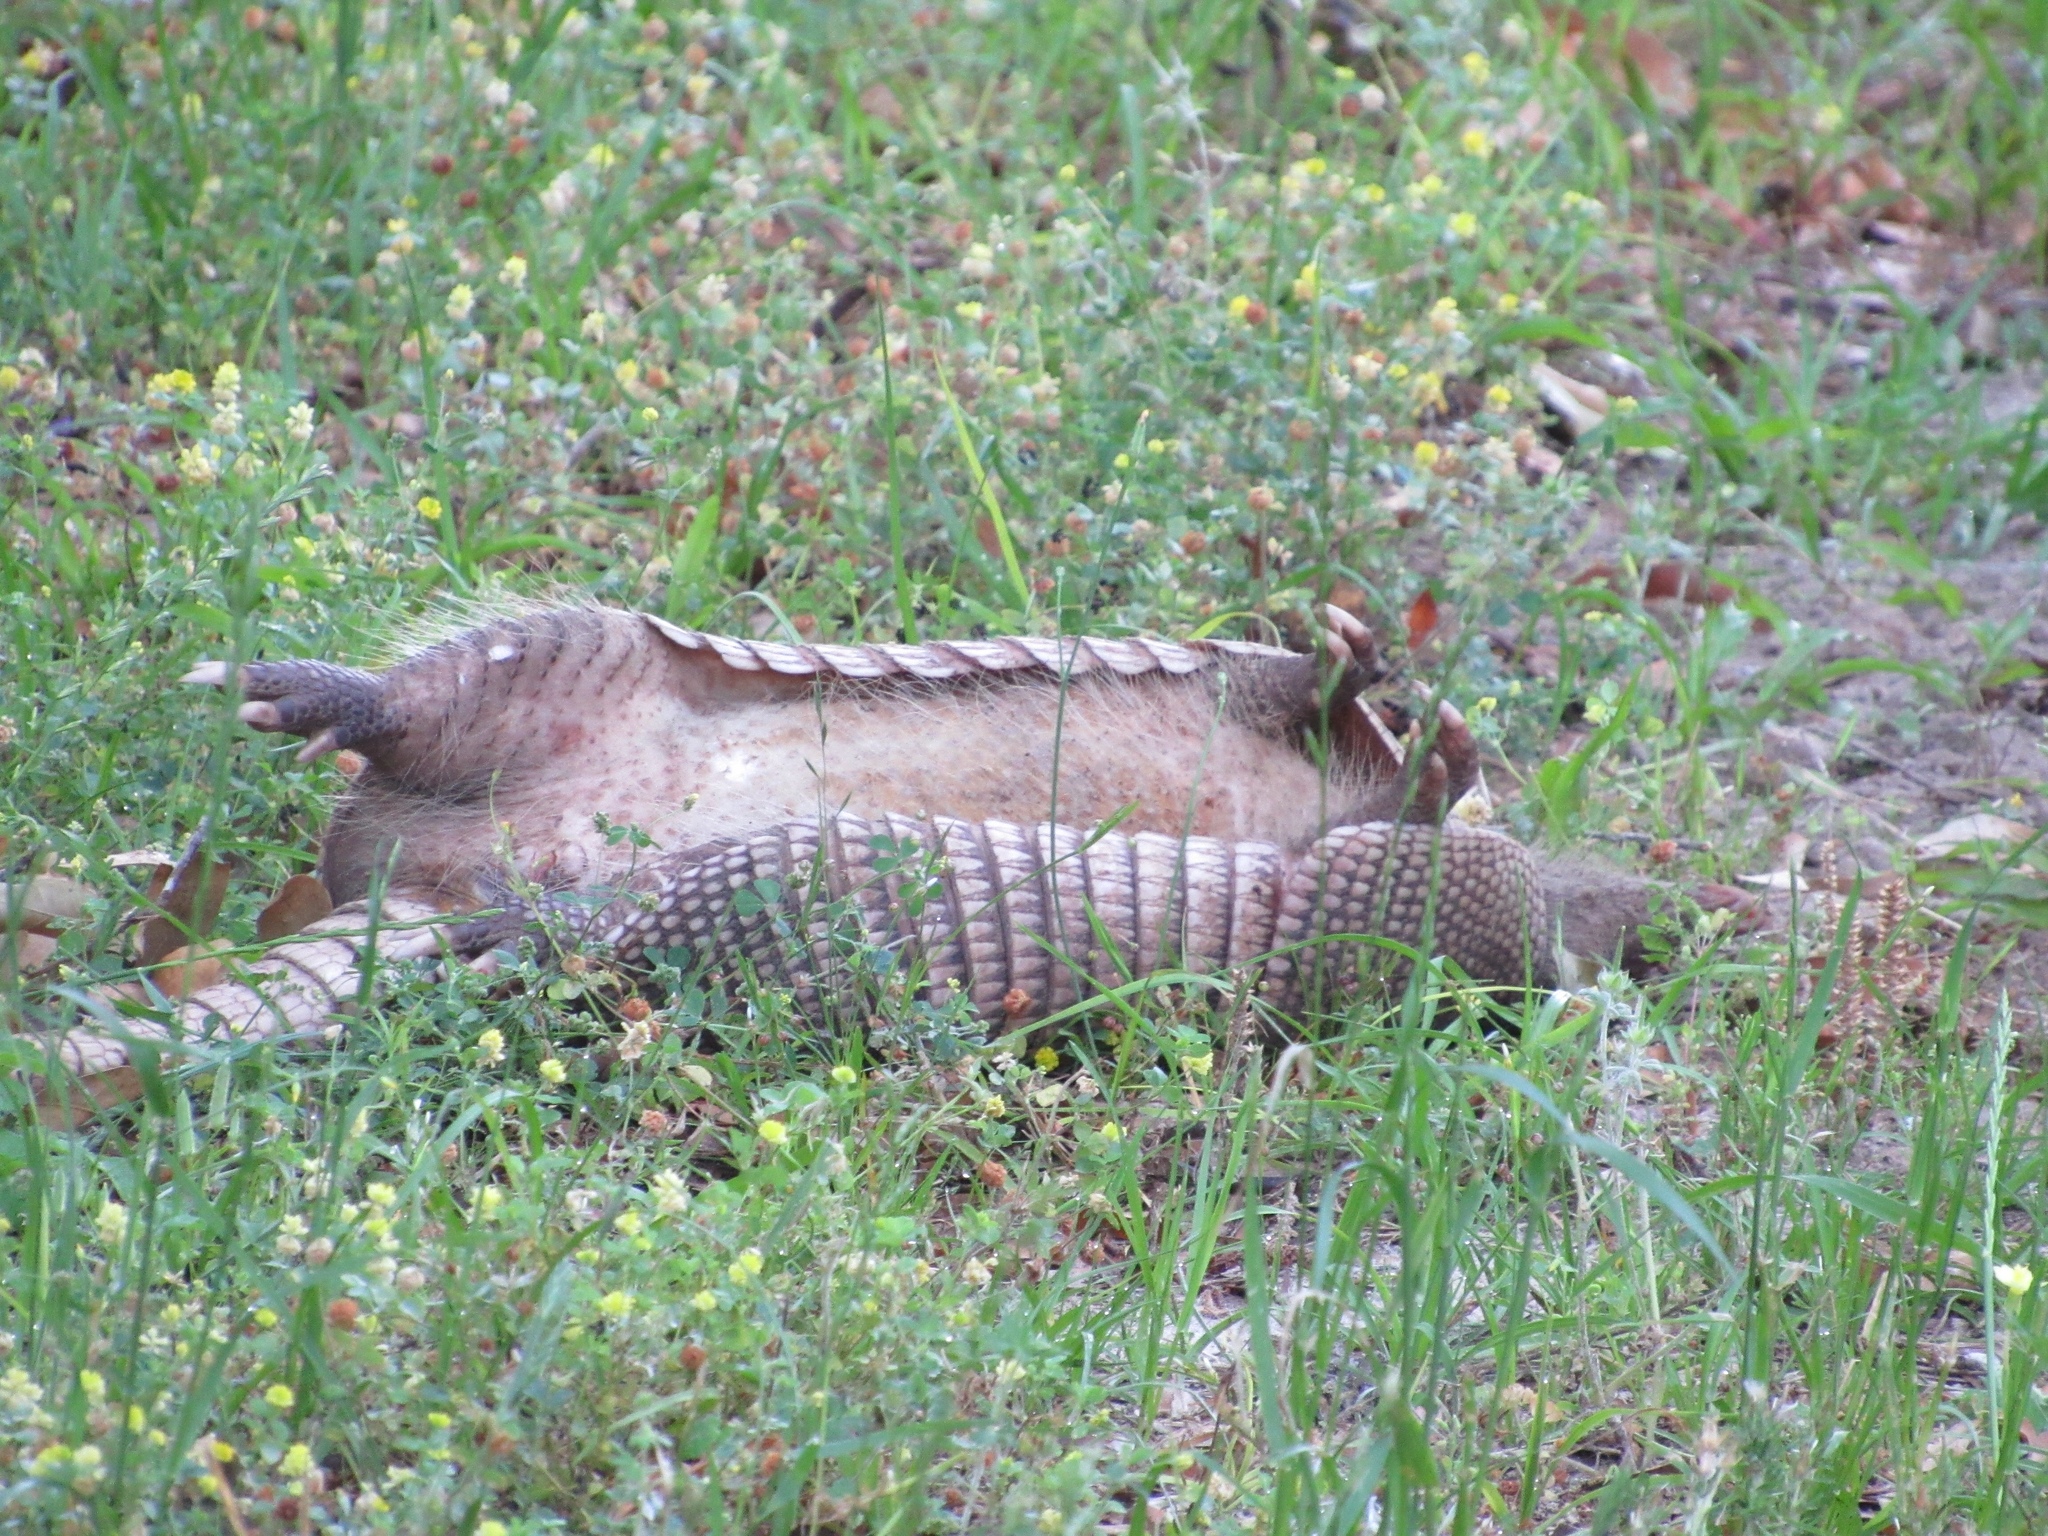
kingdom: Animalia
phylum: Chordata
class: Mammalia
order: Cingulata
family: Dasypodidae
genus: Dasypus
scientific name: Dasypus novemcinctus
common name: Nine-banded armadillo
